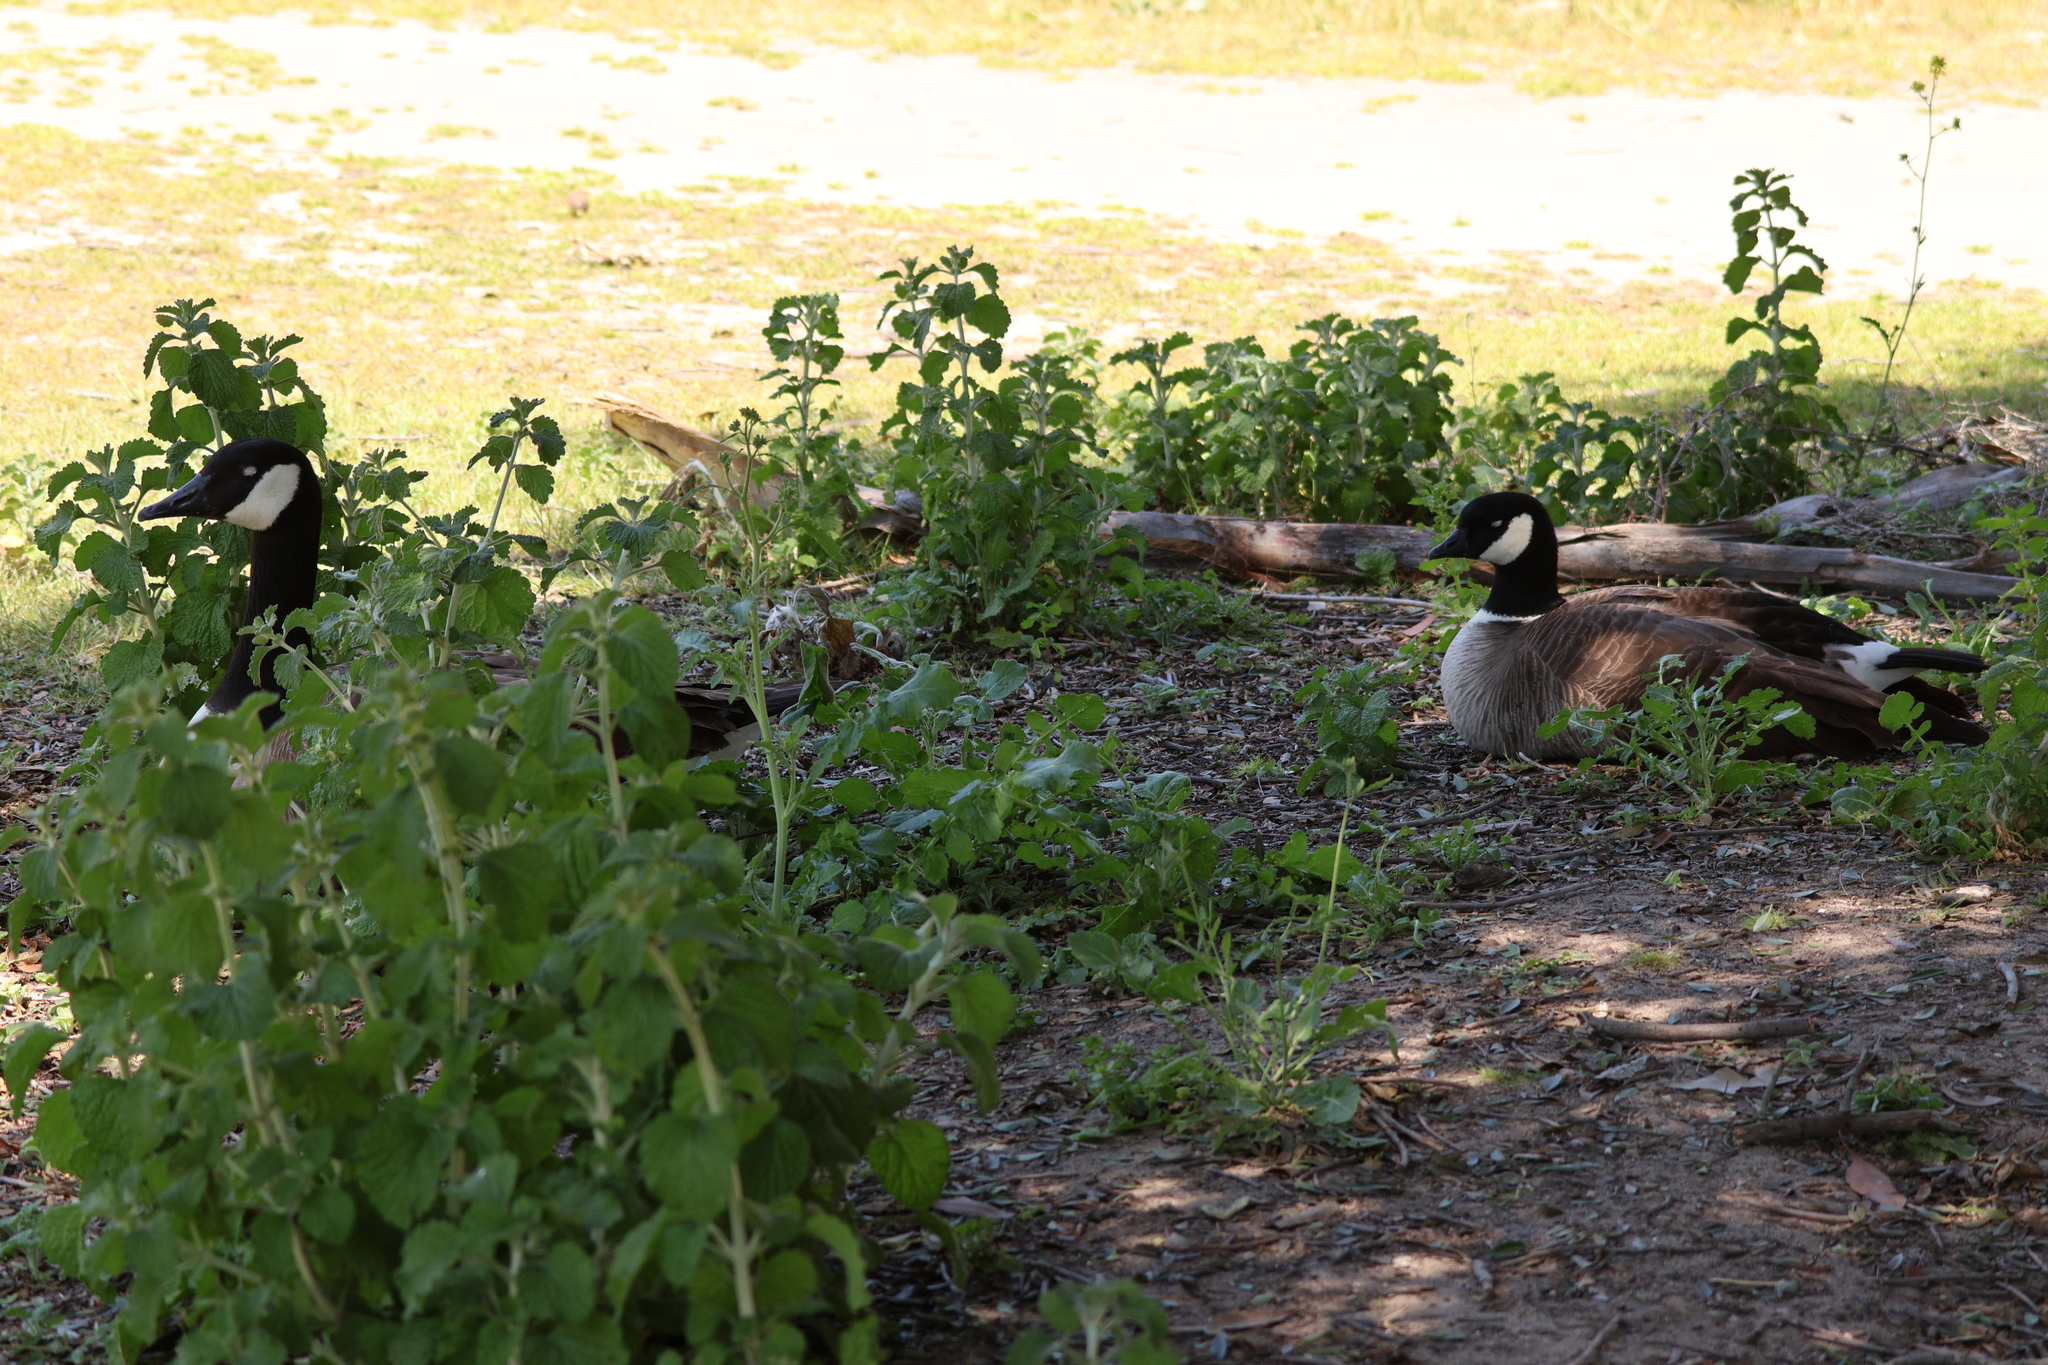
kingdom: Animalia
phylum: Chordata
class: Aves
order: Anseriformes
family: Anatidae
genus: Branta
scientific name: Branta hutchinsii
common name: Cackling goose
